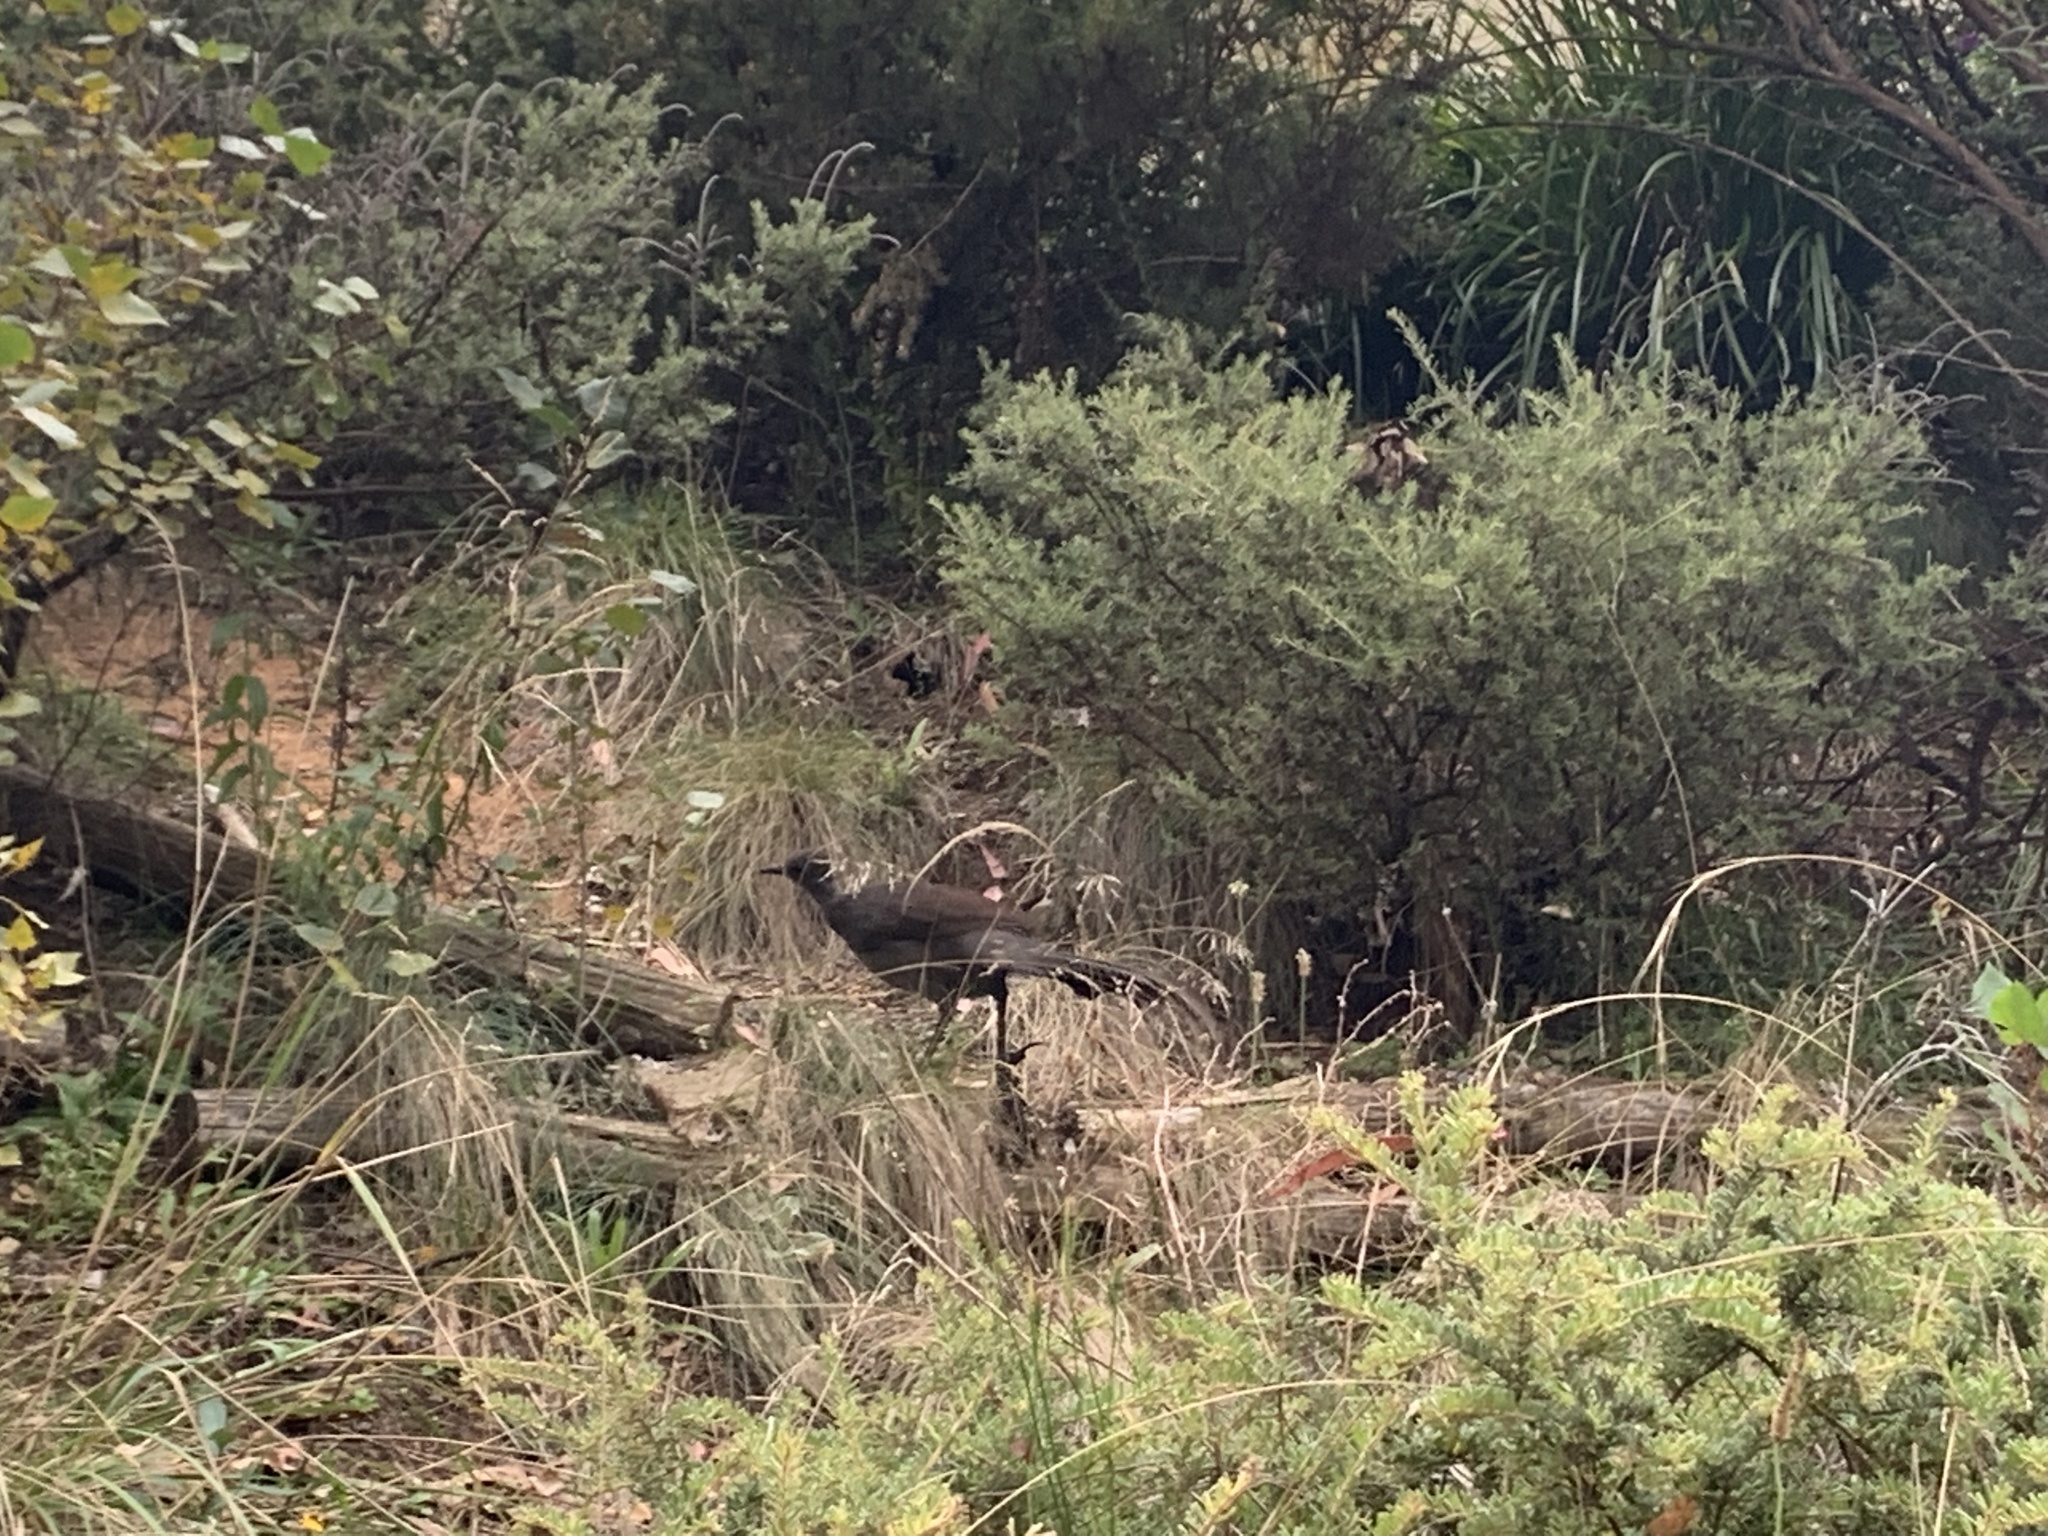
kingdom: Animalia
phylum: Chordata
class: Aves
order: Passeriformes
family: Menuridae
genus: Menura
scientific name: Menura novaehollandiae
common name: Superb lyrebird
